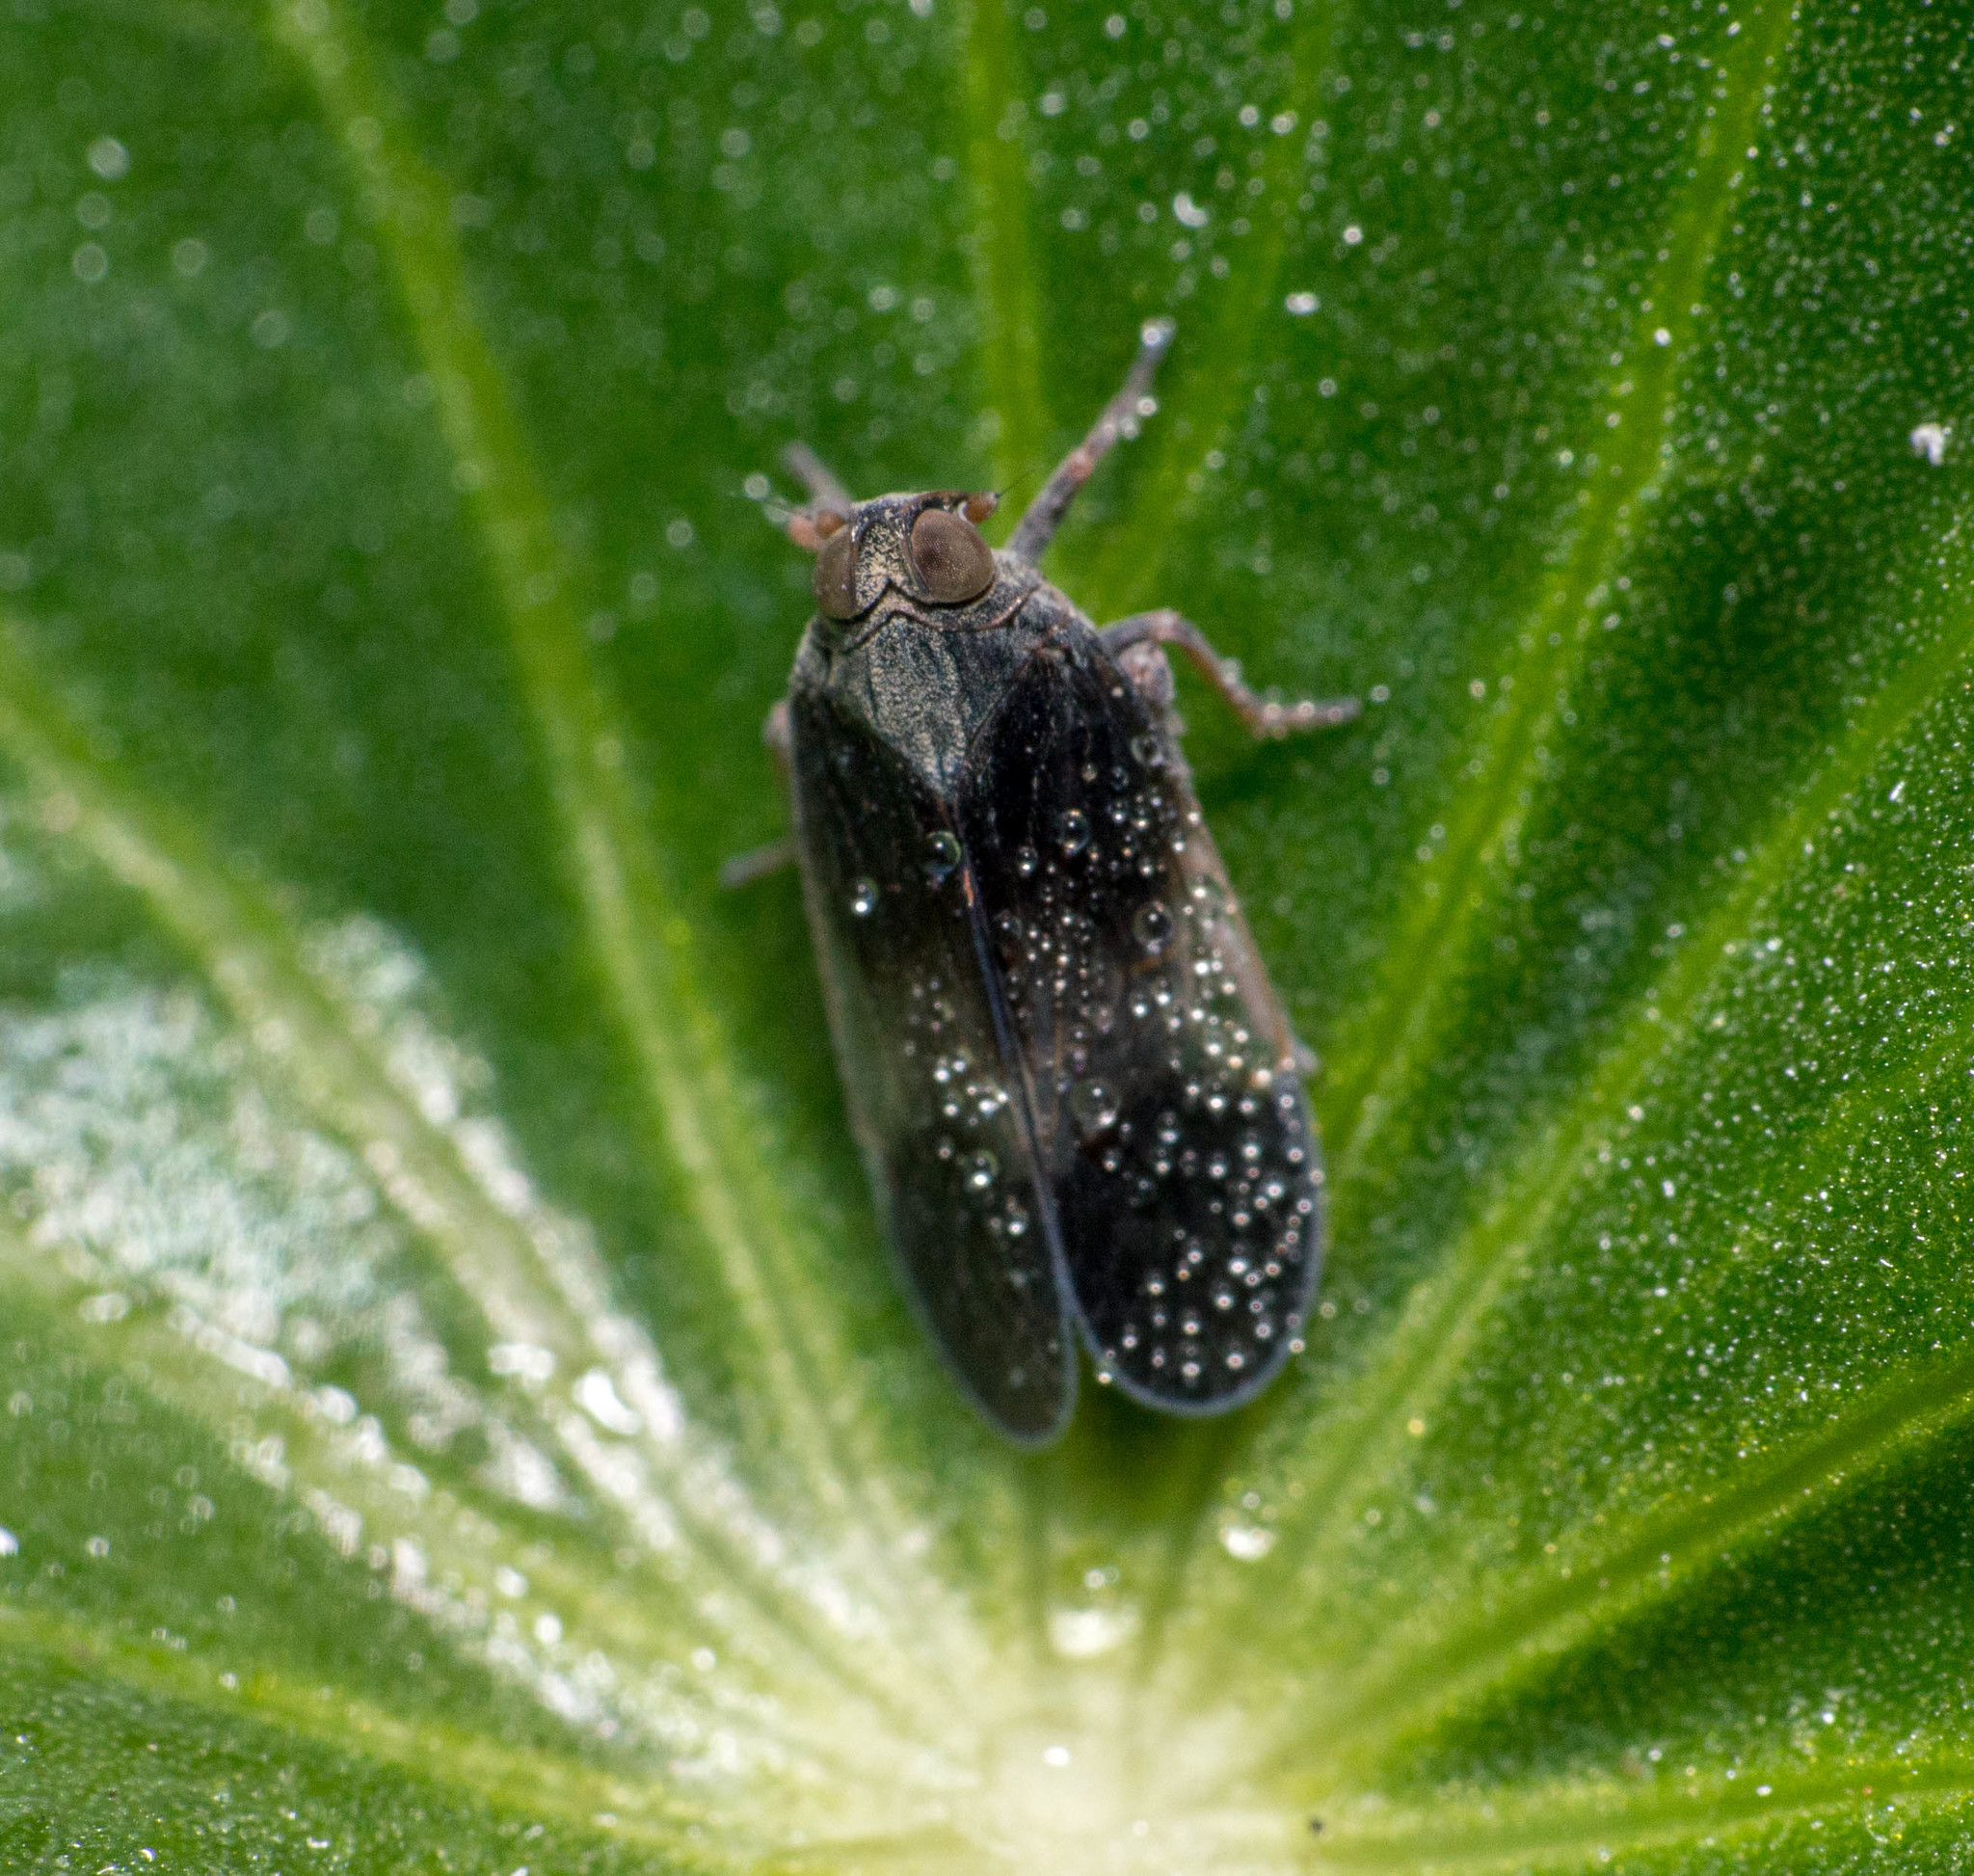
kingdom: Animalia
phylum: Arthropoda
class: Insecta
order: Hemiptera
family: Cixiidae
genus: Melanoliarus
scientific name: Melanoliarus dimidiatus
